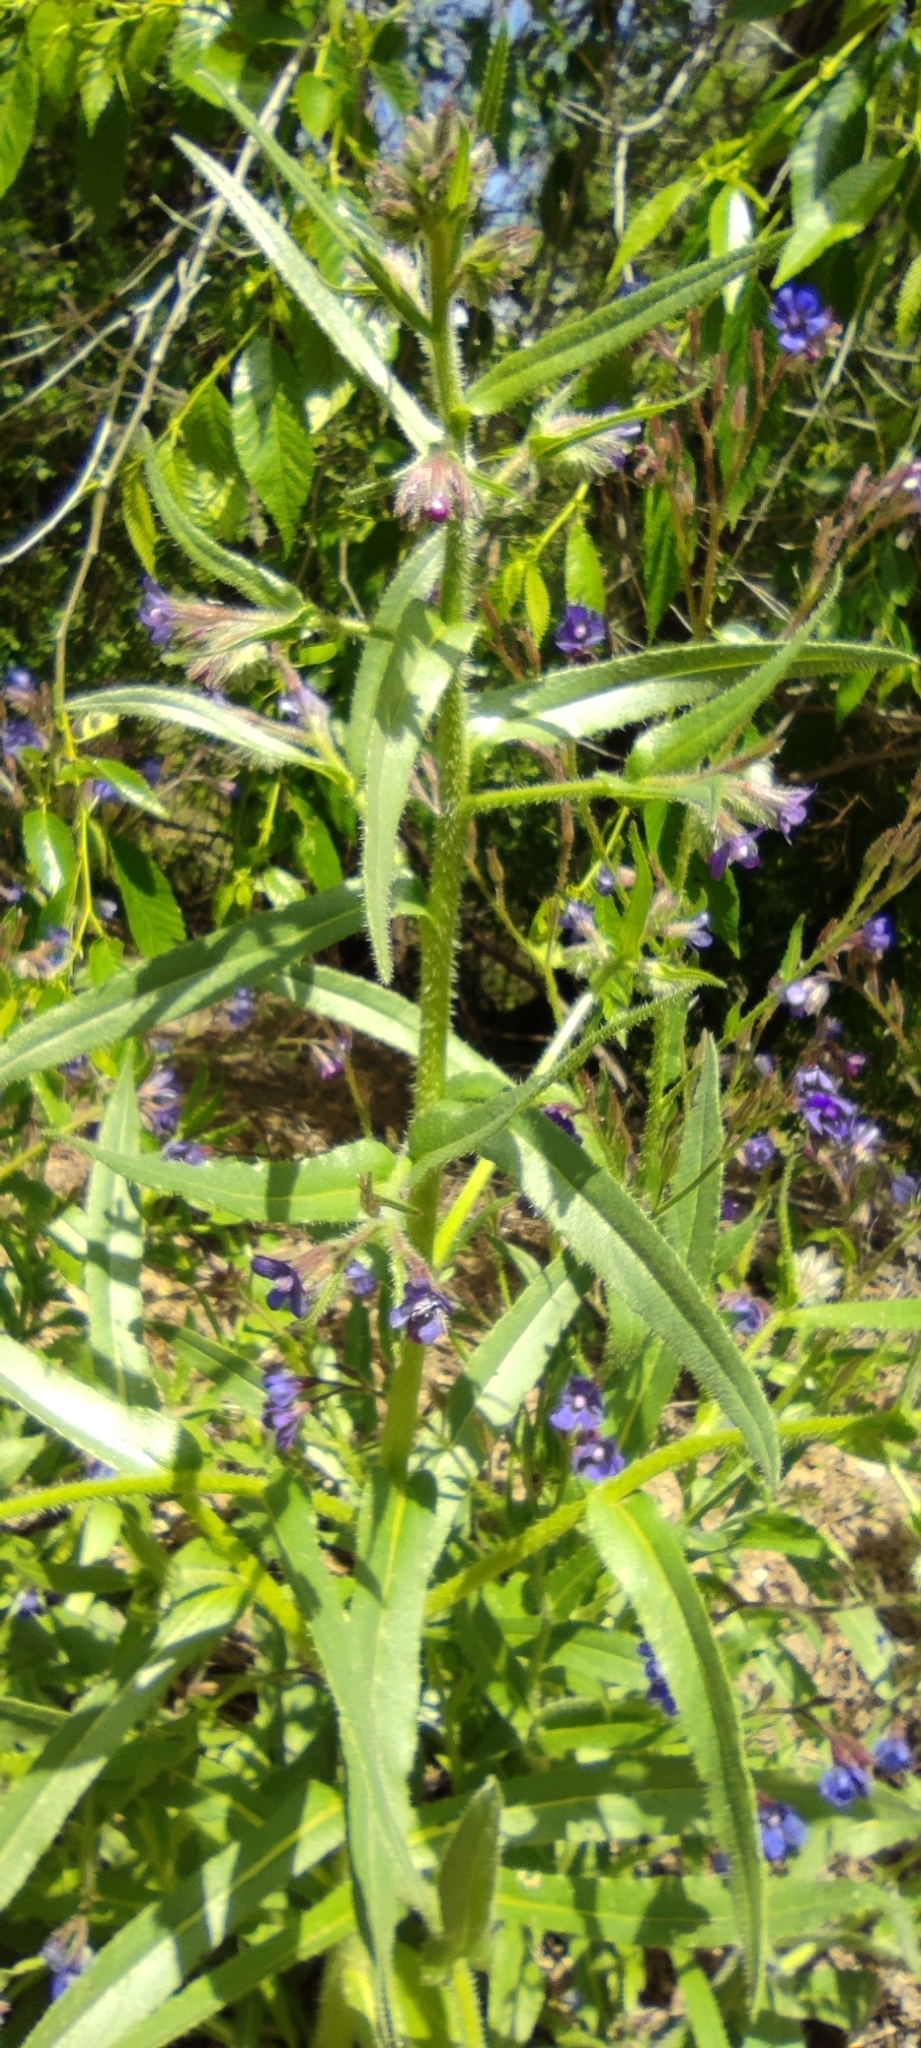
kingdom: Plantae
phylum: Tracheophyta
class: Magnoliopsida
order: Boraginales
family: Boraginaceae
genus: Anchusa
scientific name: Anchusa azurea
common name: Garden anchusa
